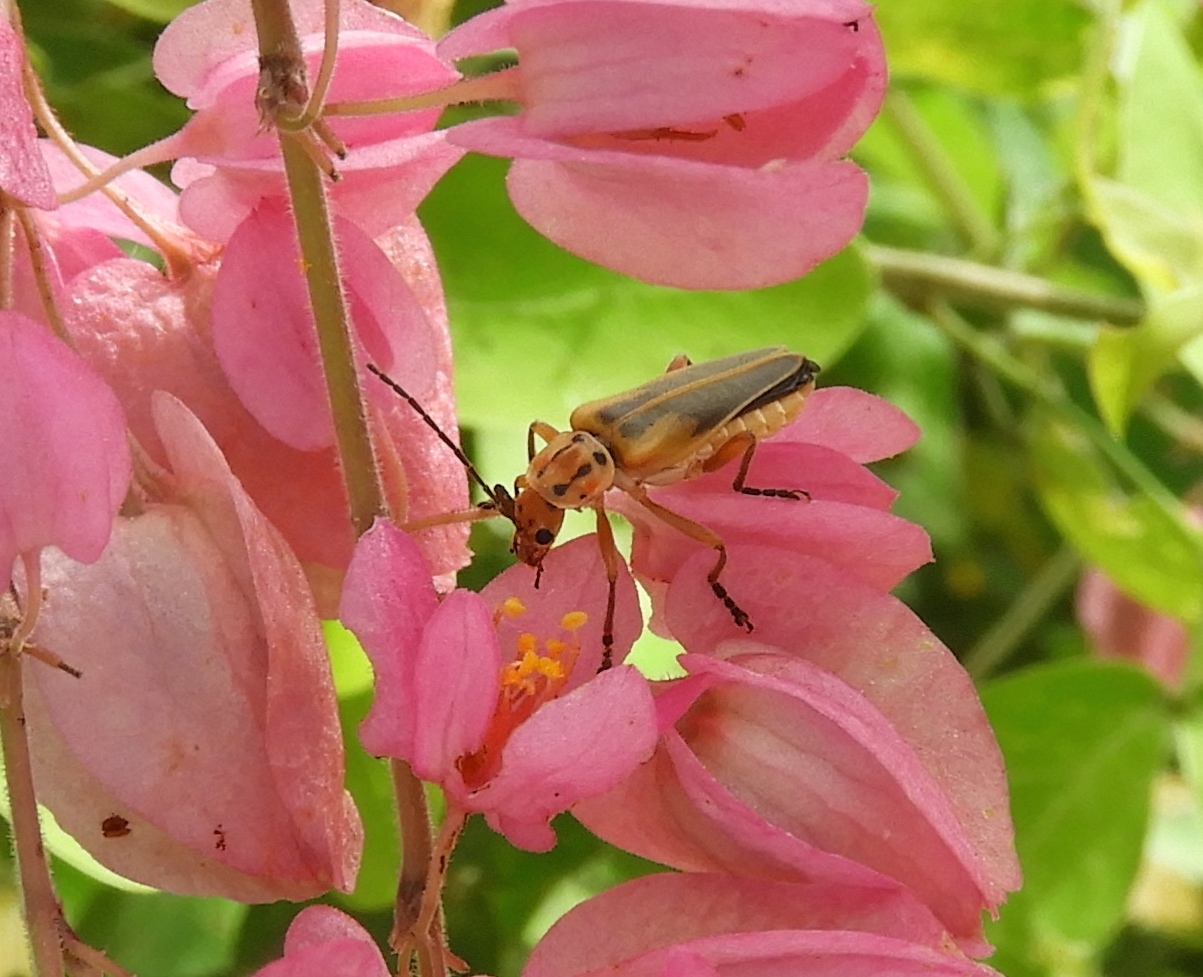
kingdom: Animalia
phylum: Arthropoda
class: Insecta
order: Coleoptera
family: Cantharidae
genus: Chauliognathus
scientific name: Chauliognathus
